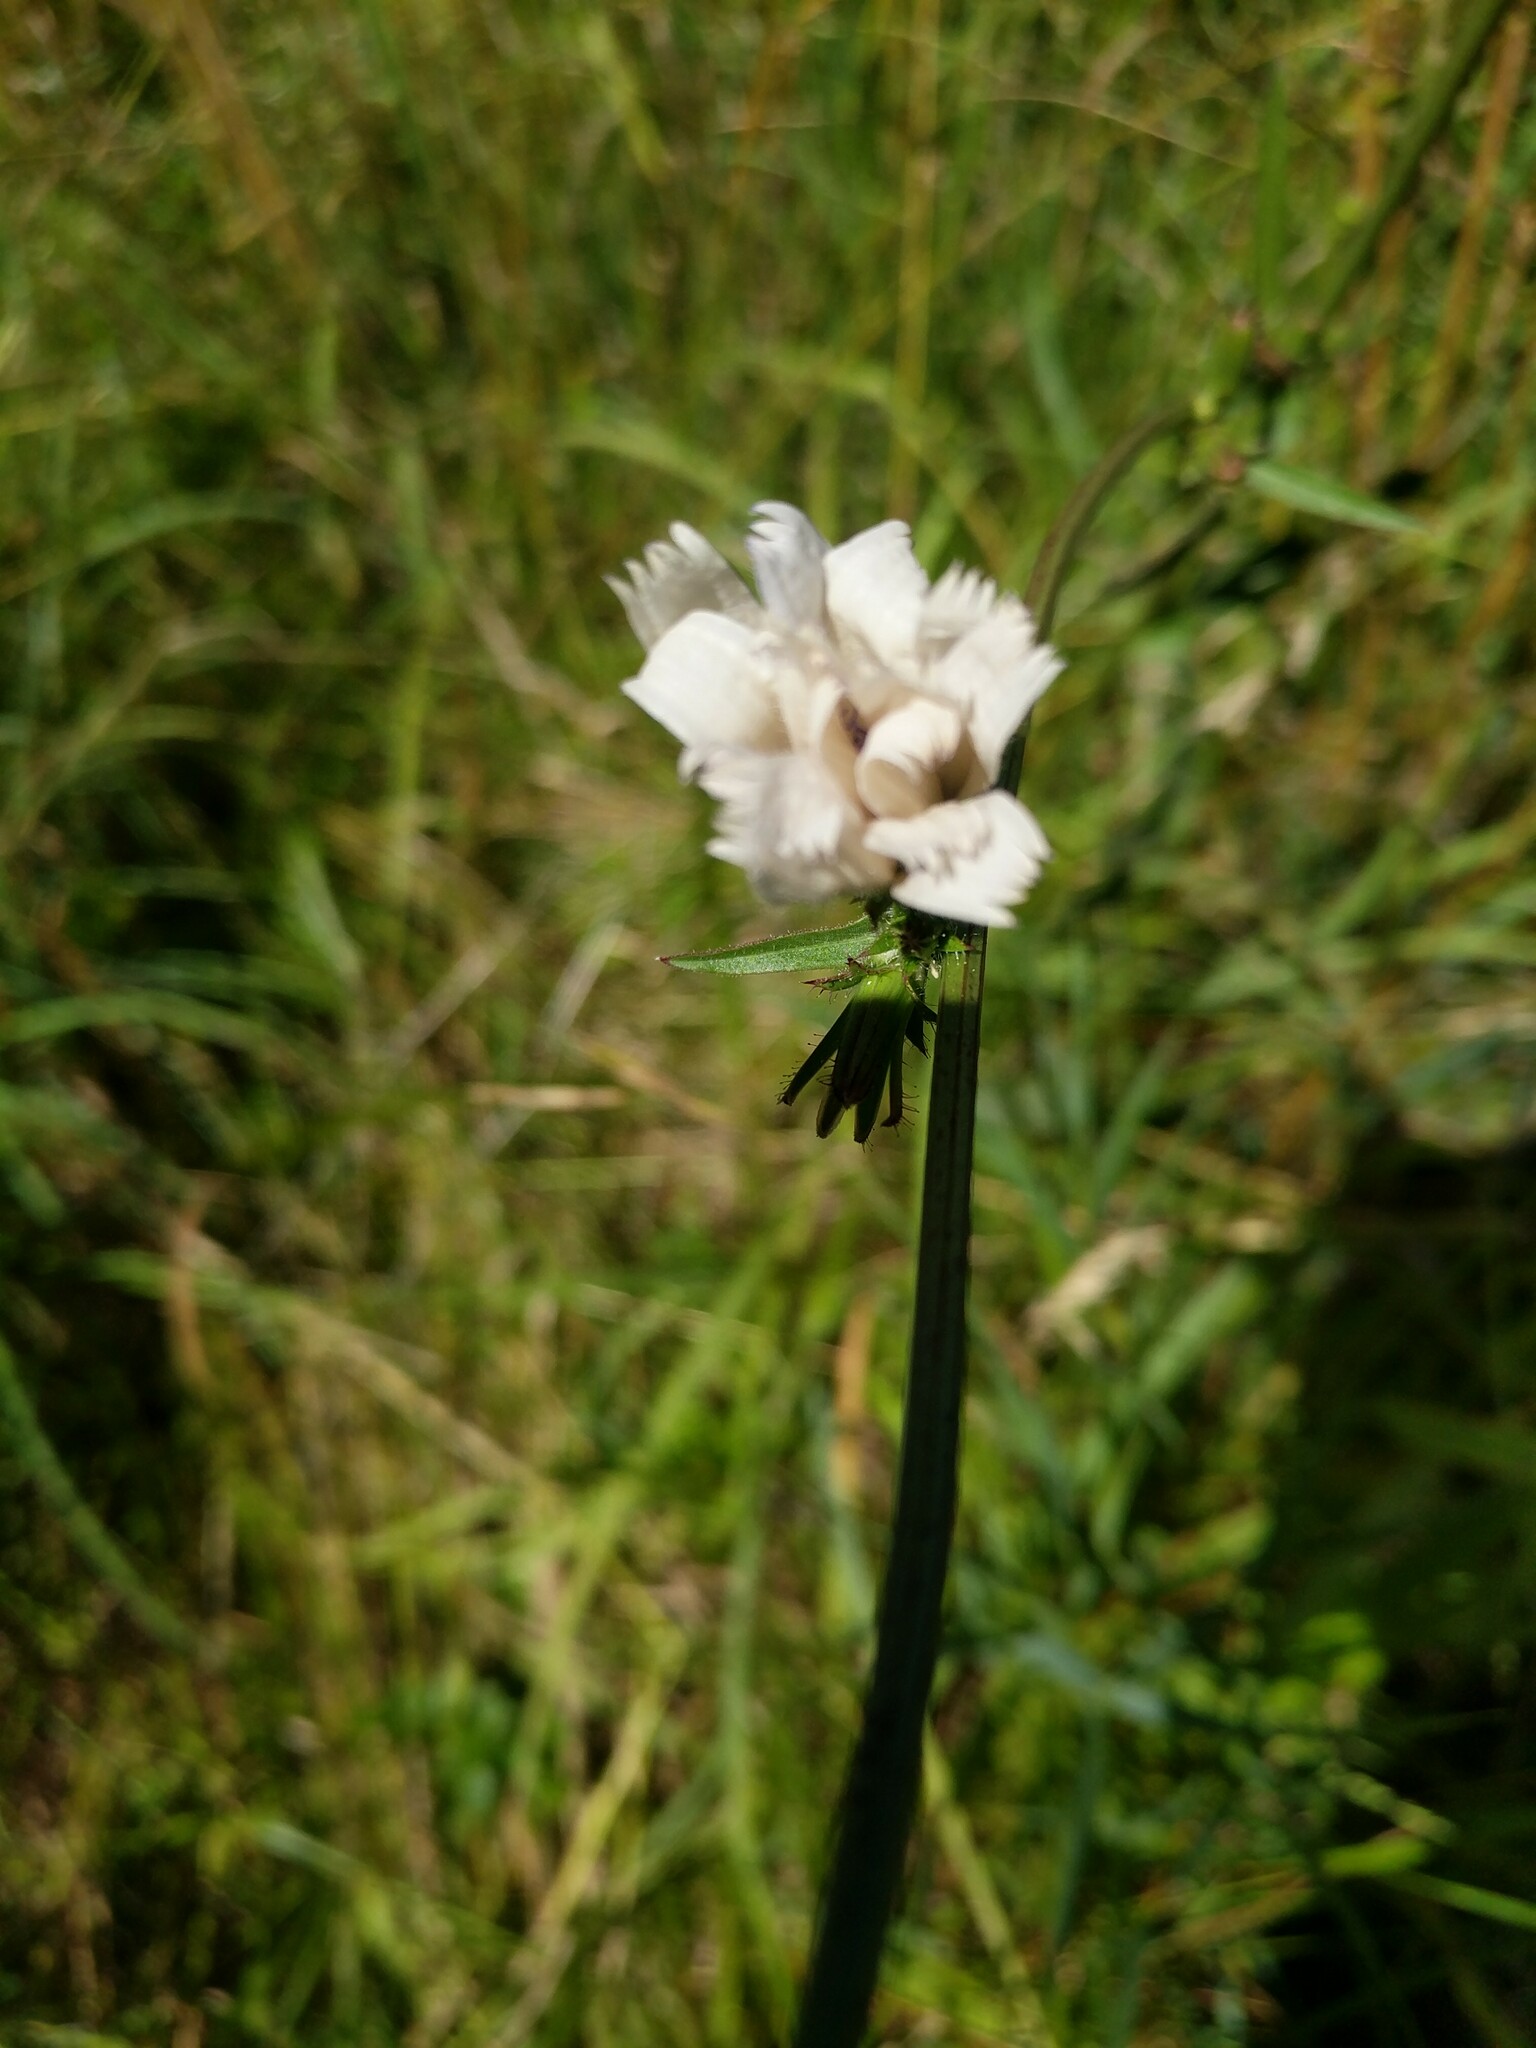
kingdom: Plantae
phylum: Tracheophyta
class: Magnoliopsida
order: Asterales
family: Asteraceae
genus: Cichorium
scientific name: Cichorium intybus
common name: Chicory
